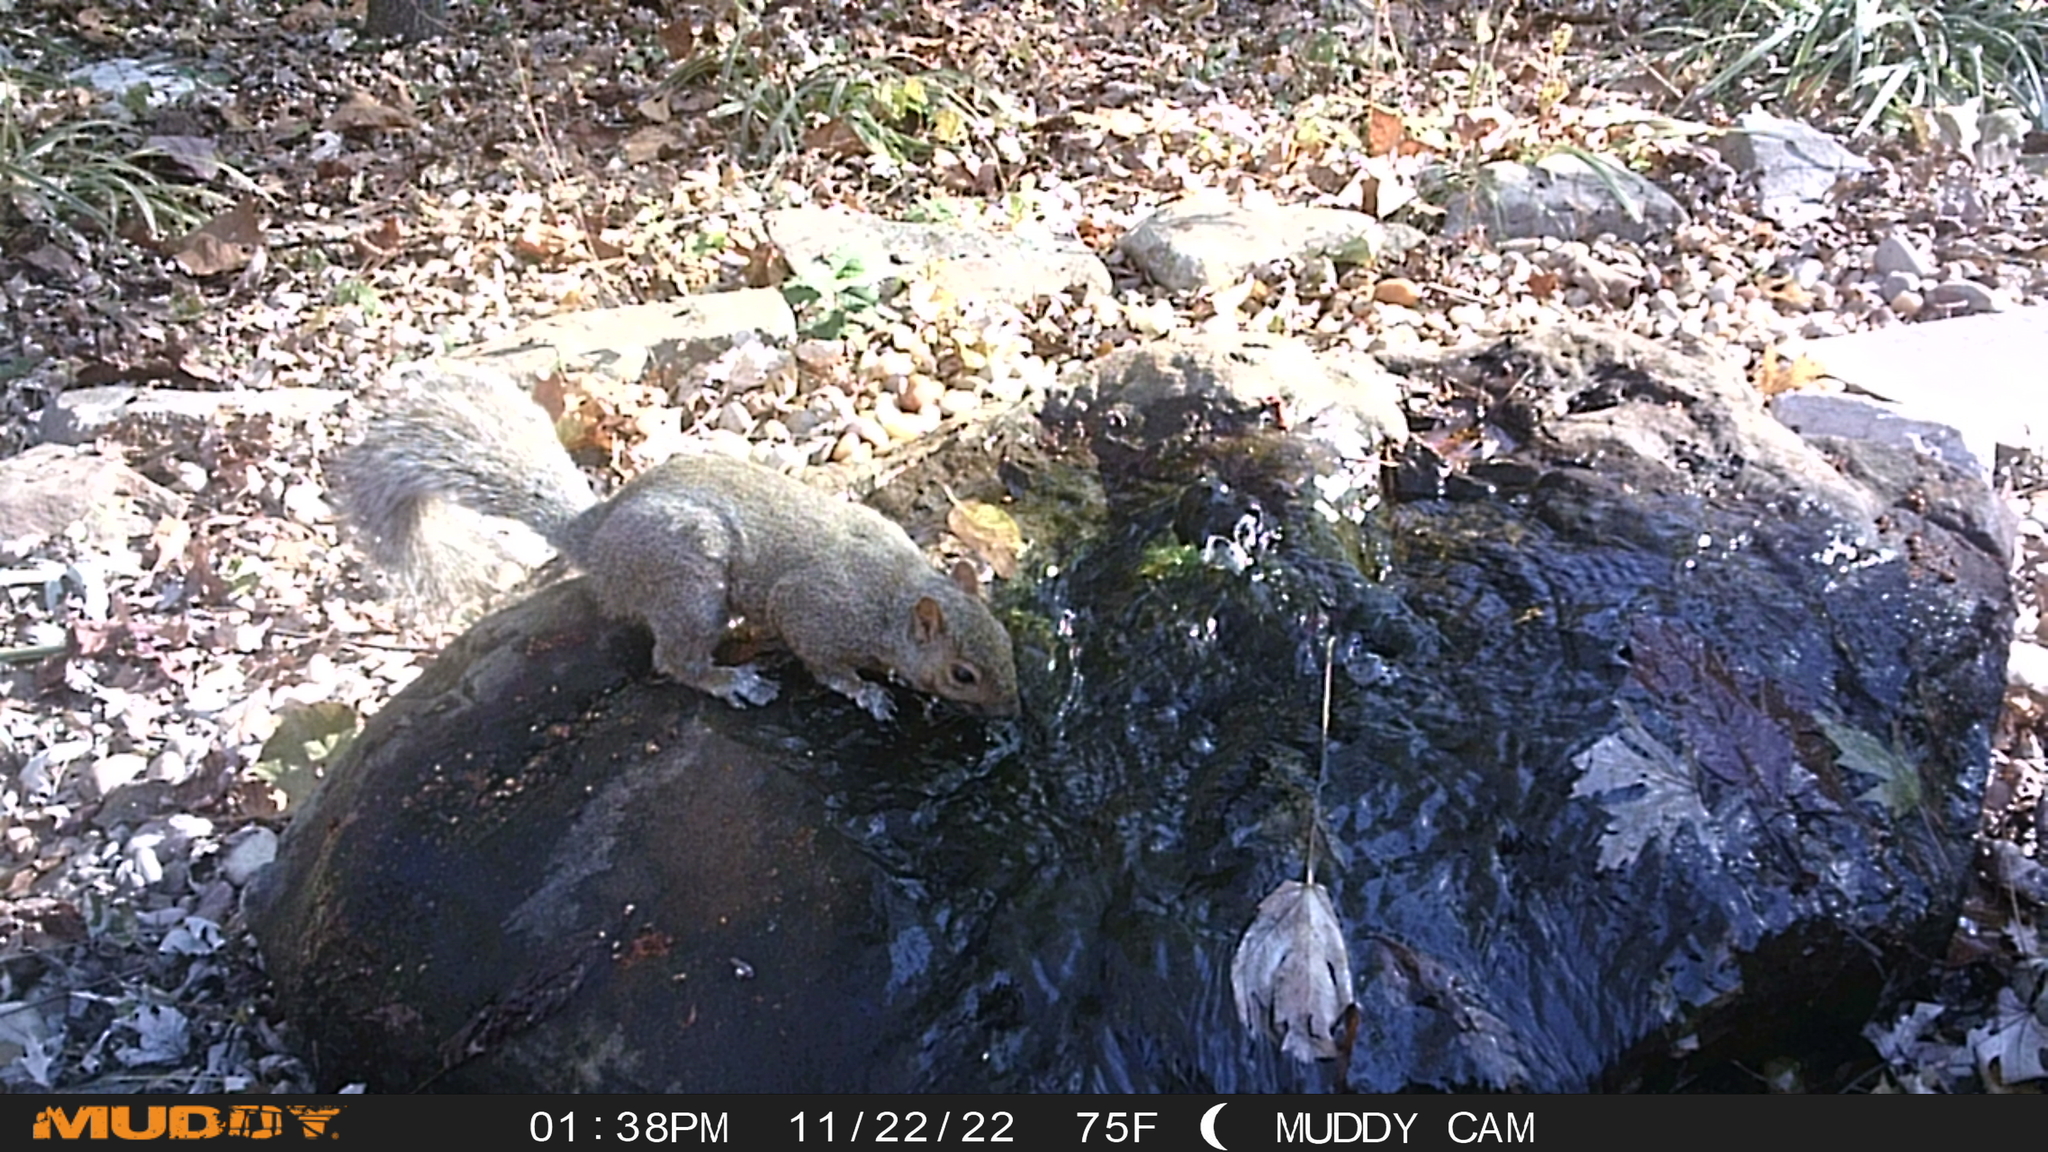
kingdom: Animalia
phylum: Chordata
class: Mammalia
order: Rodentia
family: Sciuridae
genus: Sciurus
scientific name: Sciurus carolinensis
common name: Eastern gray squirrel
